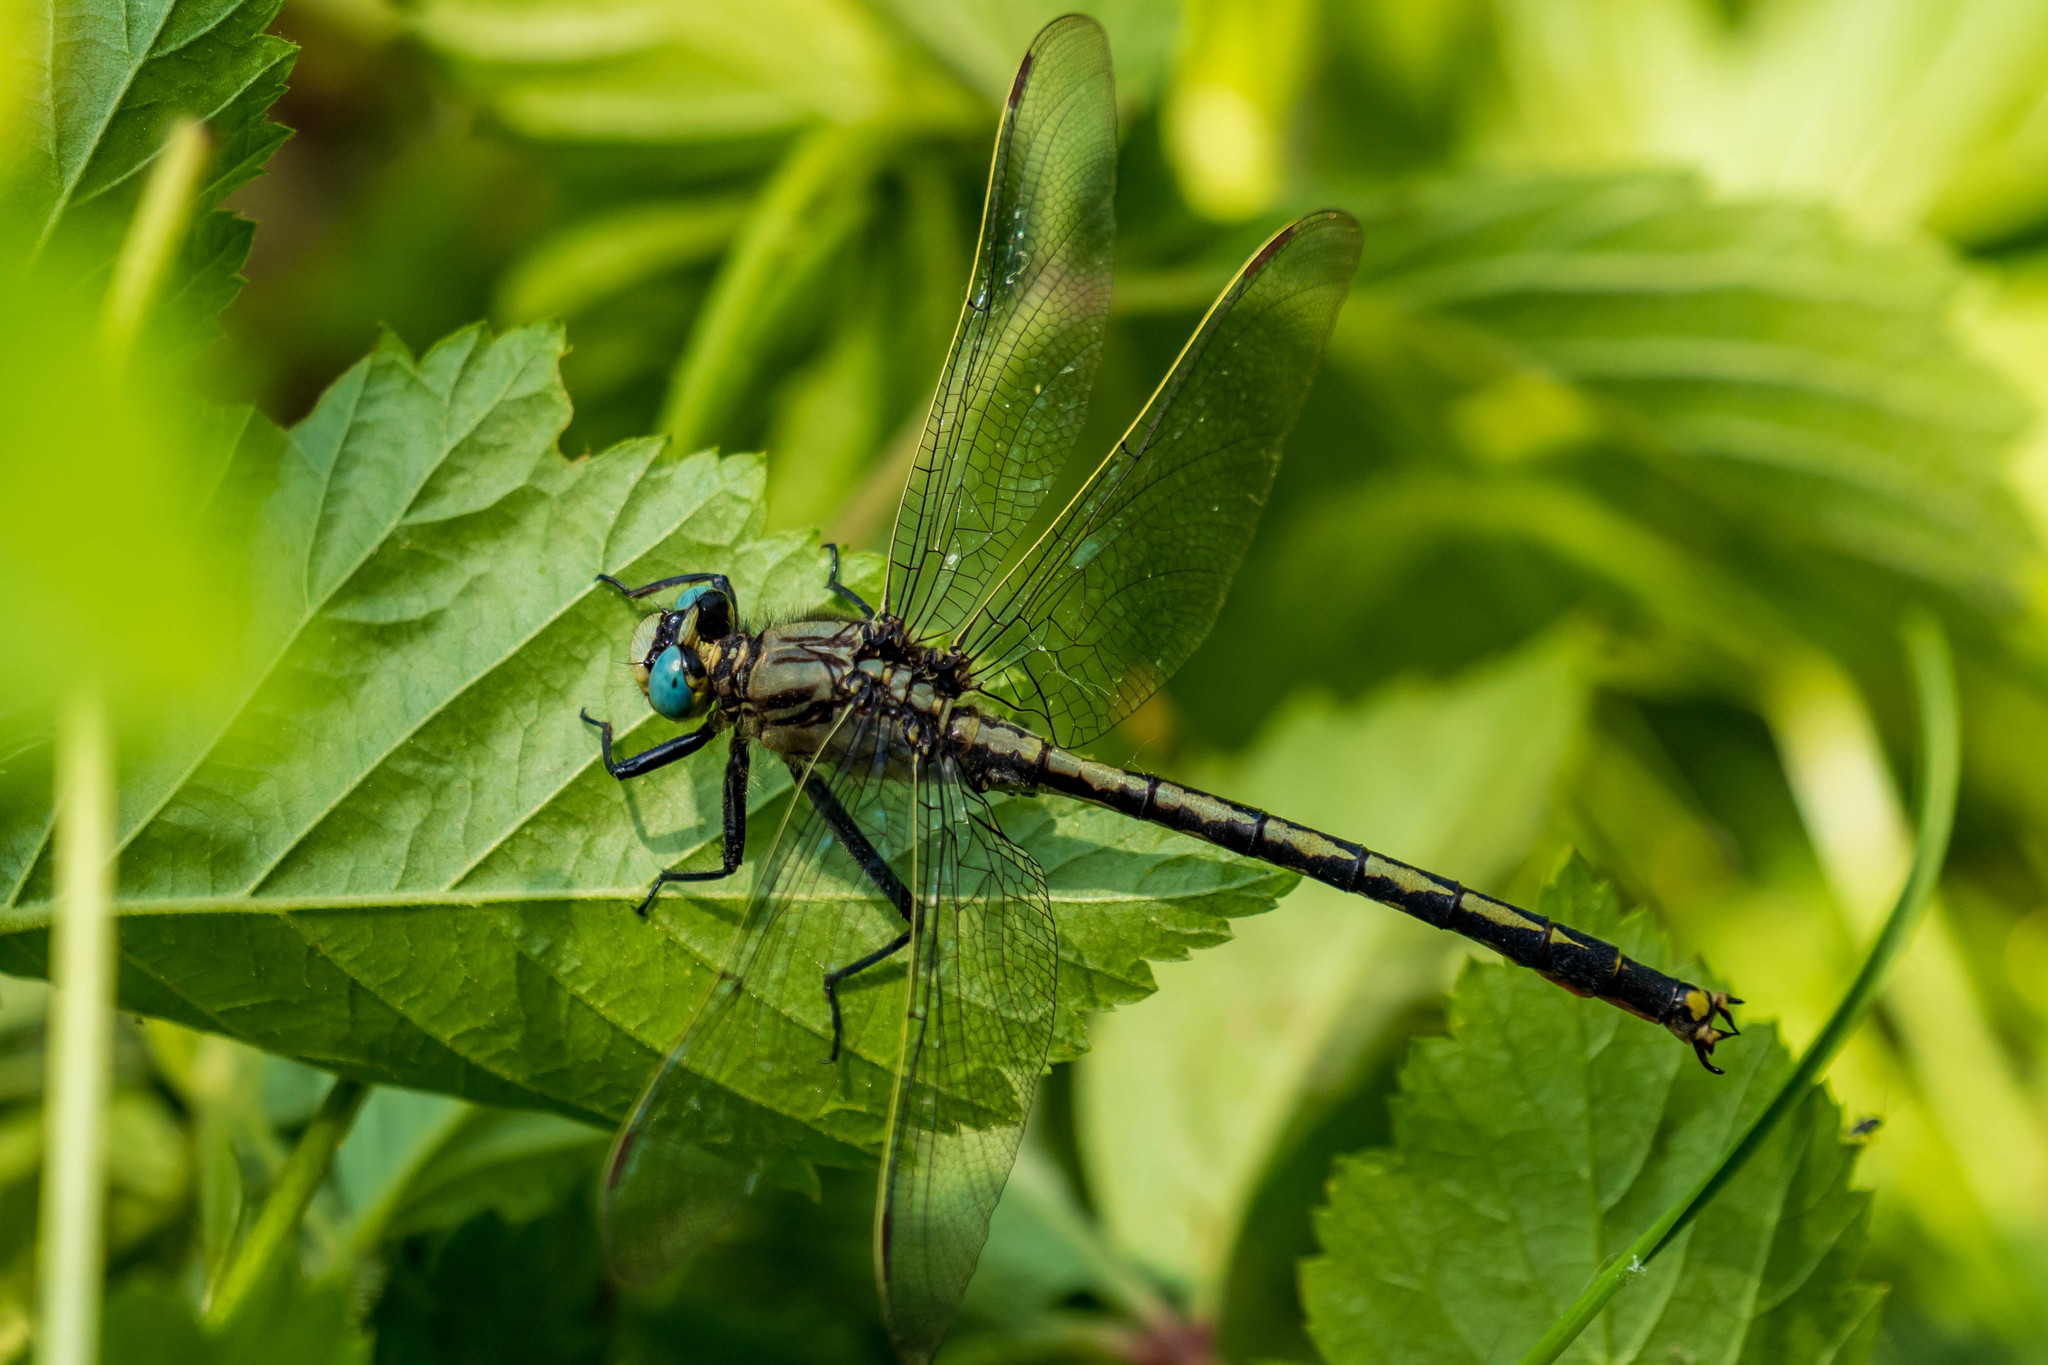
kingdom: Animalia
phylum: Arthropoda
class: Insecta
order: Odonata
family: Gomphidae
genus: Arigomphus
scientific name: Arigomphus cornutus
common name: Horned clubtail
